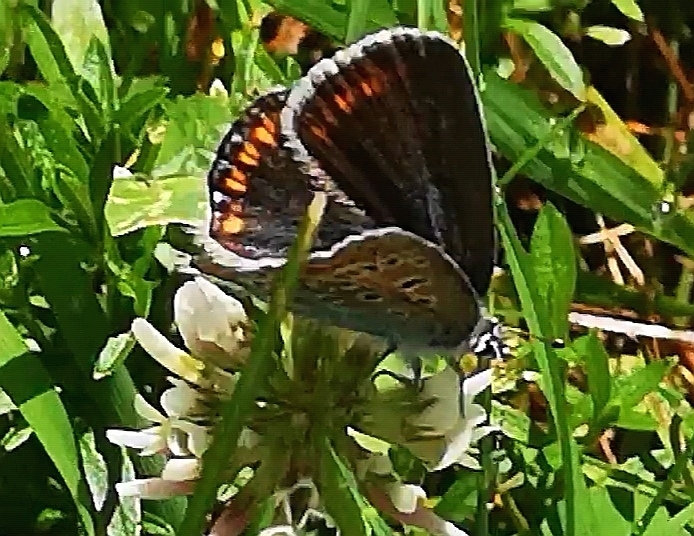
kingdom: Animalia
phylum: Arthropoda
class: Insecta
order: Lepidoptera
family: Lycaenidae
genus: Polyommatus
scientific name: Polyommatus icarus
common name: Common blue
